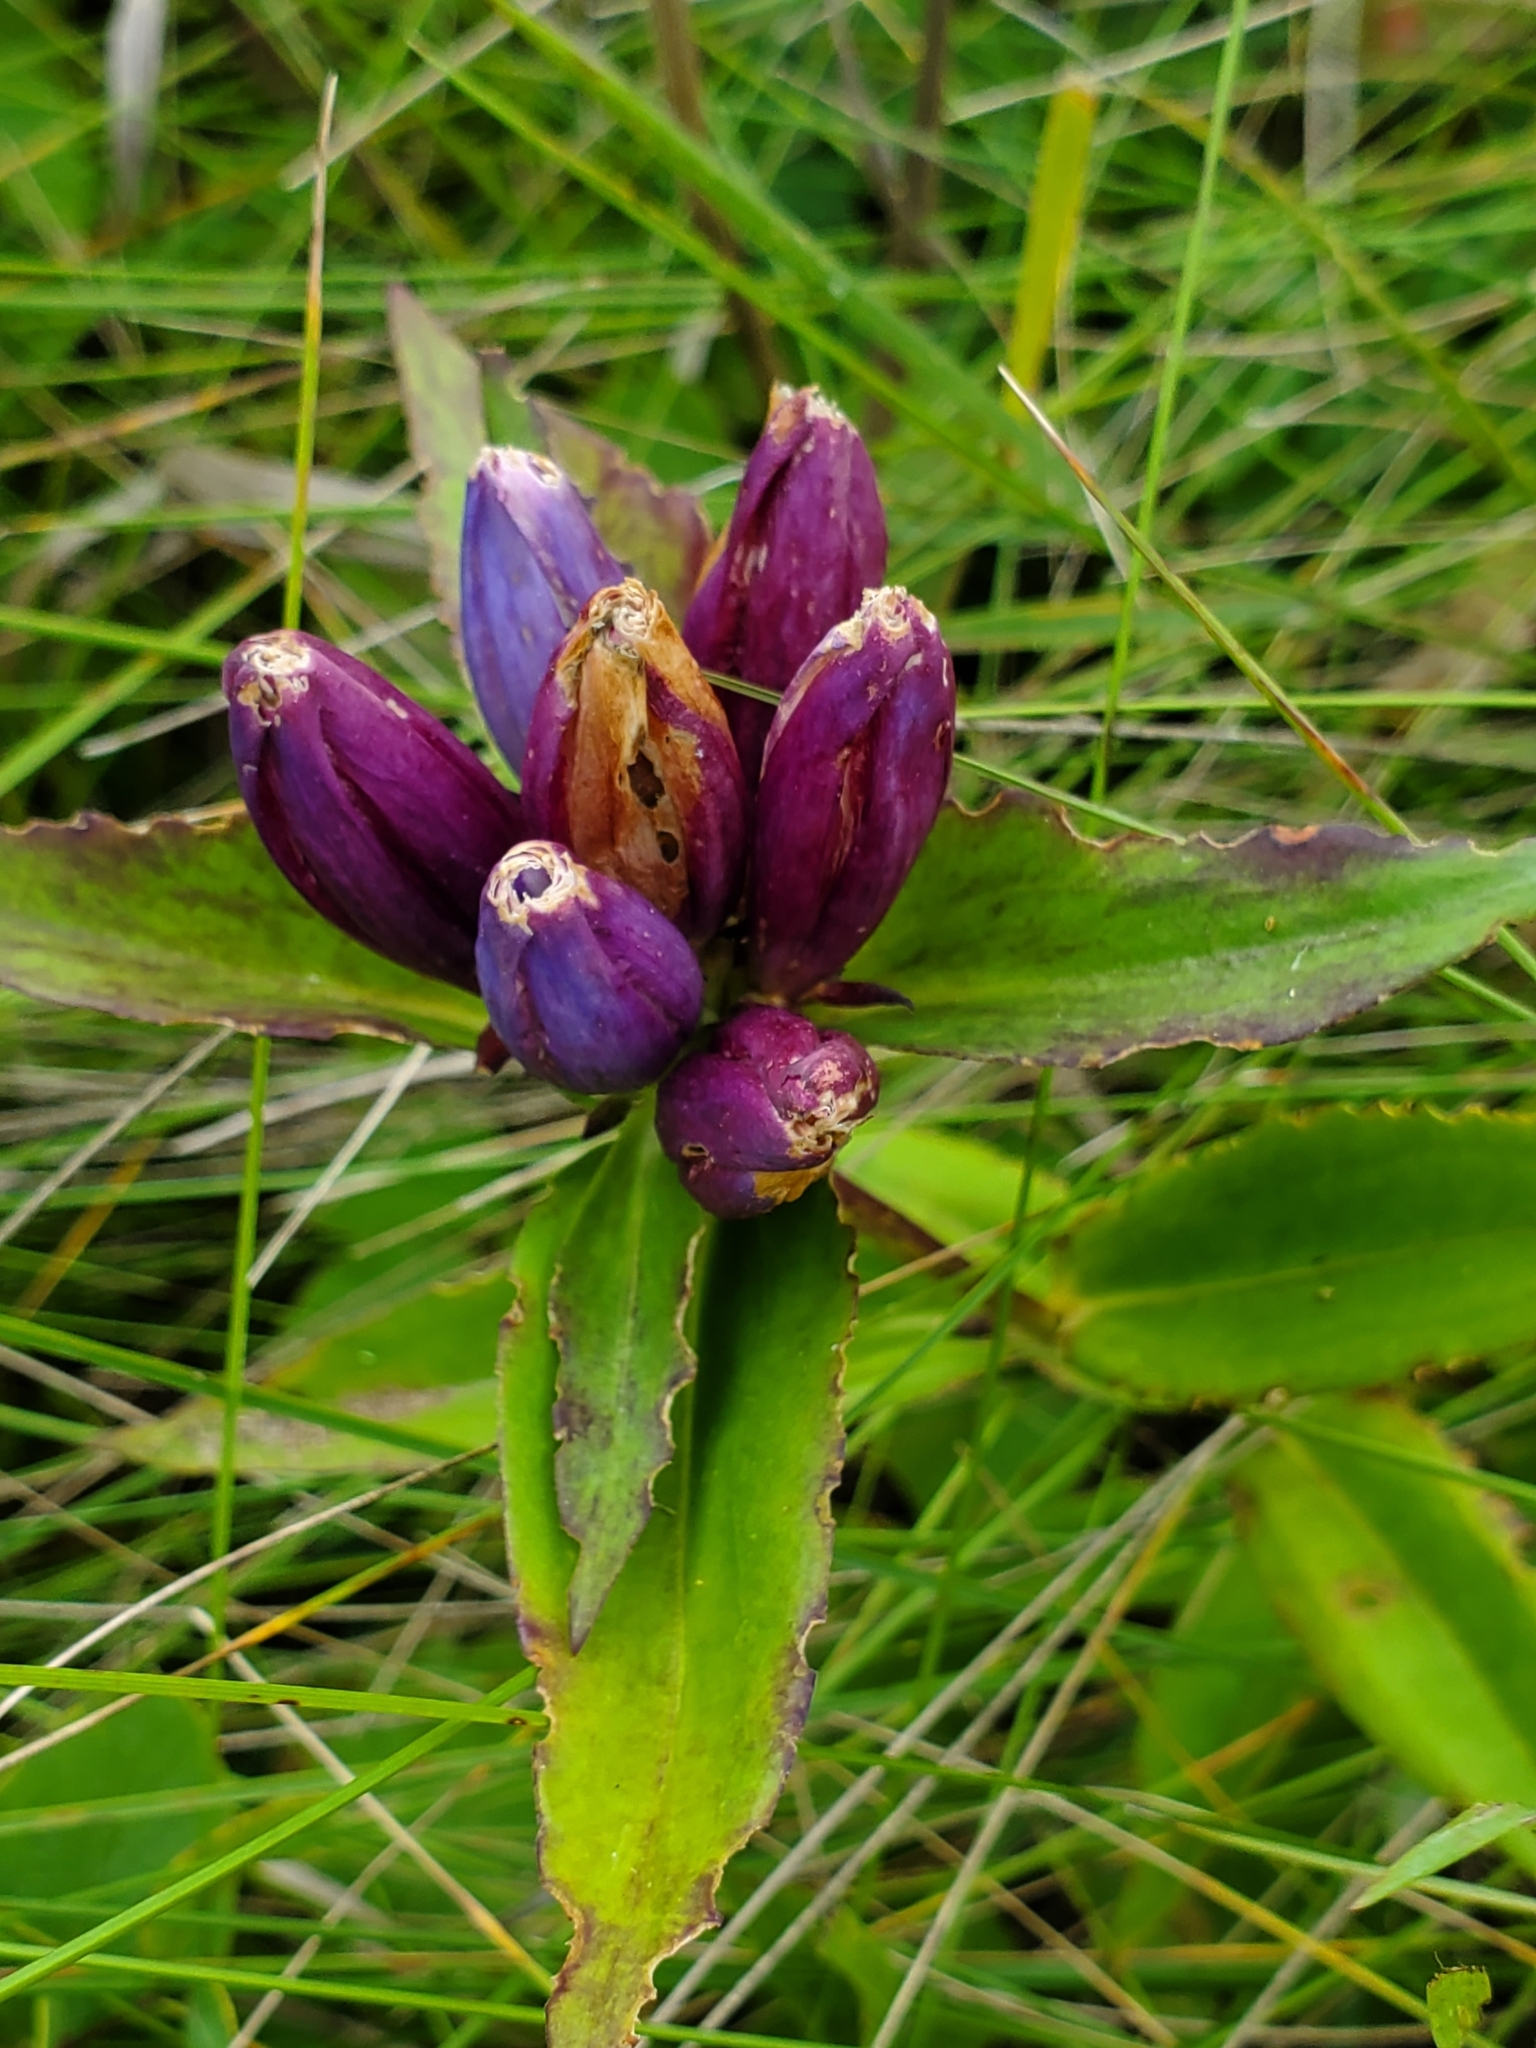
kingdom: Plantae
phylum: Tracheophyta
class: Magnoliopsida
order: Gentianales
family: Gentianaceae
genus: Gentiana
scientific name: Gentiana andrewsii
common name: Bottle gentian
